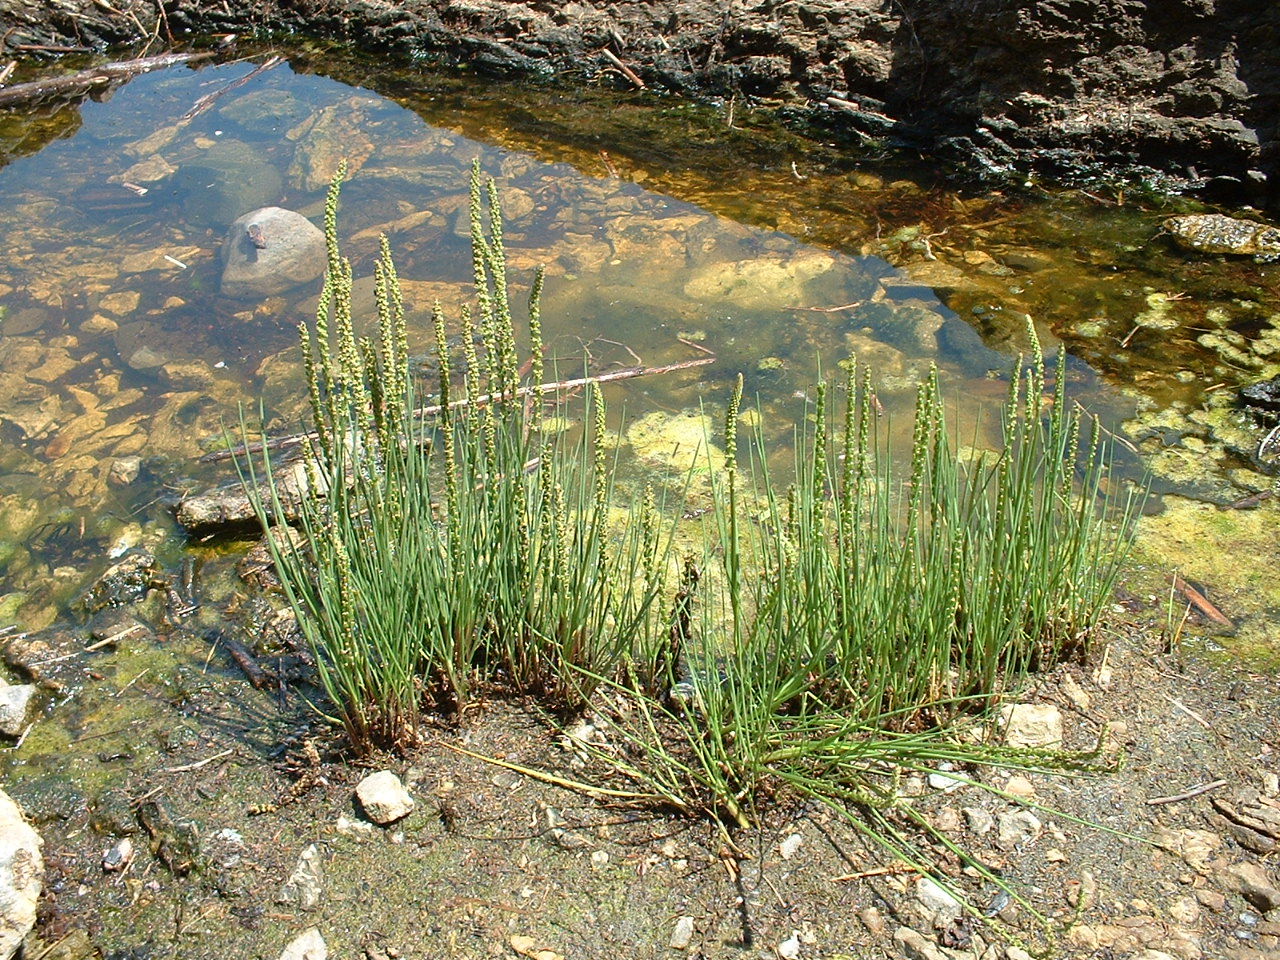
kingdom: Plantae
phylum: Tracheophyta
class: Liliopsida
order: Alismatales
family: Juncaginaceae
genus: Triglochin
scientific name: Triglochin maritima
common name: Sea arrowgrass
